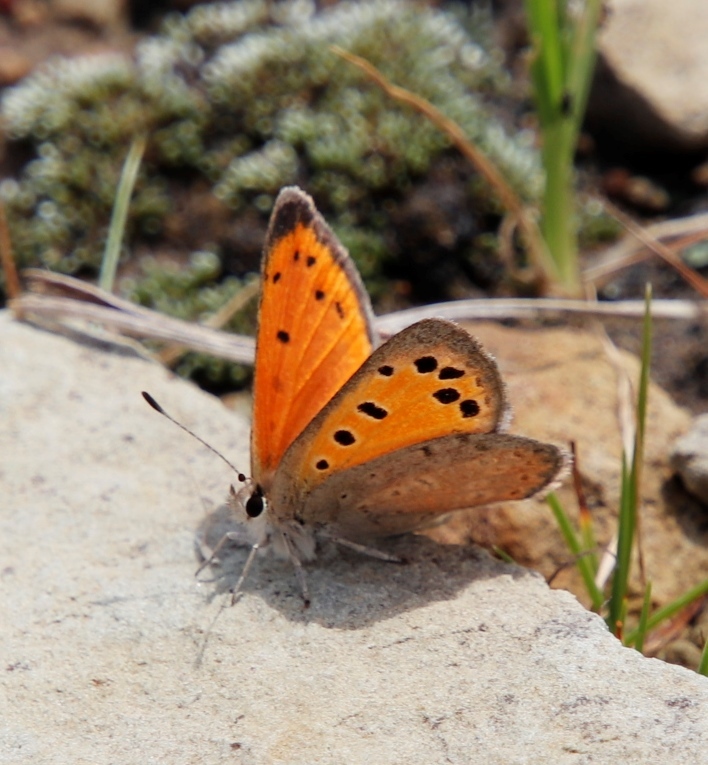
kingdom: Animalia
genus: Lafron
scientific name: Lafron
